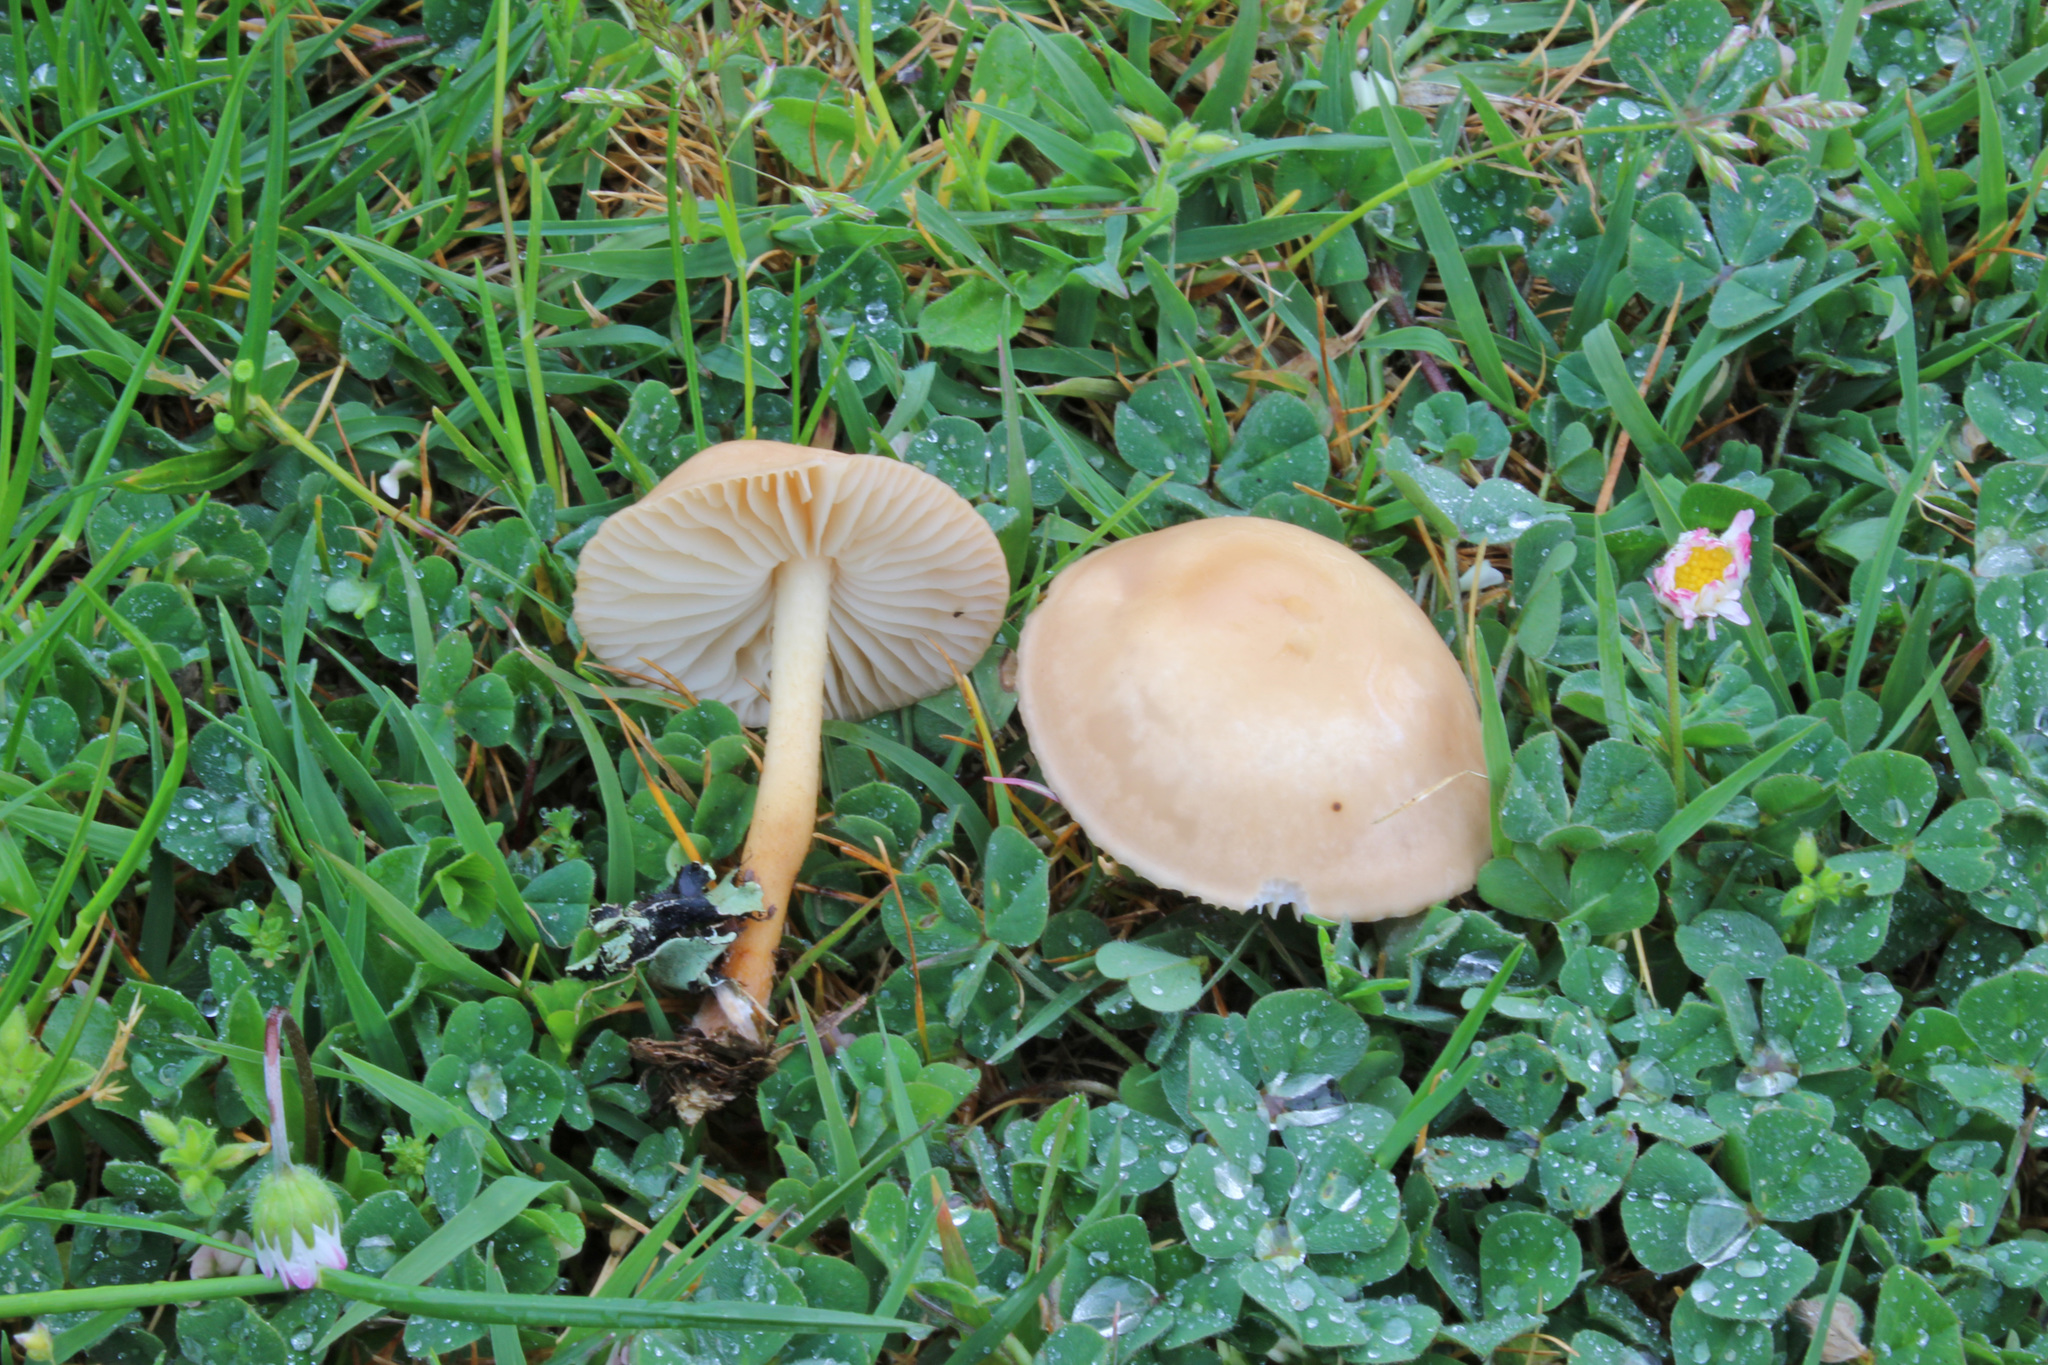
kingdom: Fungi
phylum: Basidiomycota
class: Agaricomycetes
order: Agaricales
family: Marasmiaceae
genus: Marasmius
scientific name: Marasmius oreades
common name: Fairy ring champignon
